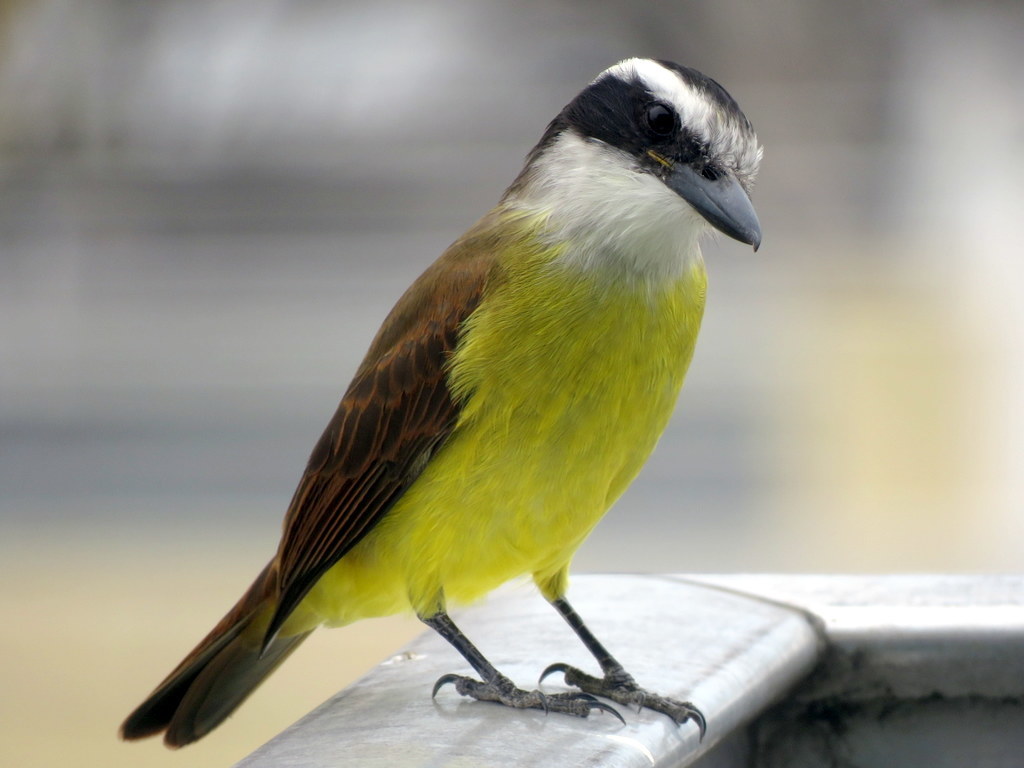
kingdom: Animalia
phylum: Chordata
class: Aves
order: Passeriformes
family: Tyrannidae
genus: Pitangus
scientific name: Pitangus sulphuratus
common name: Great kiskadee
